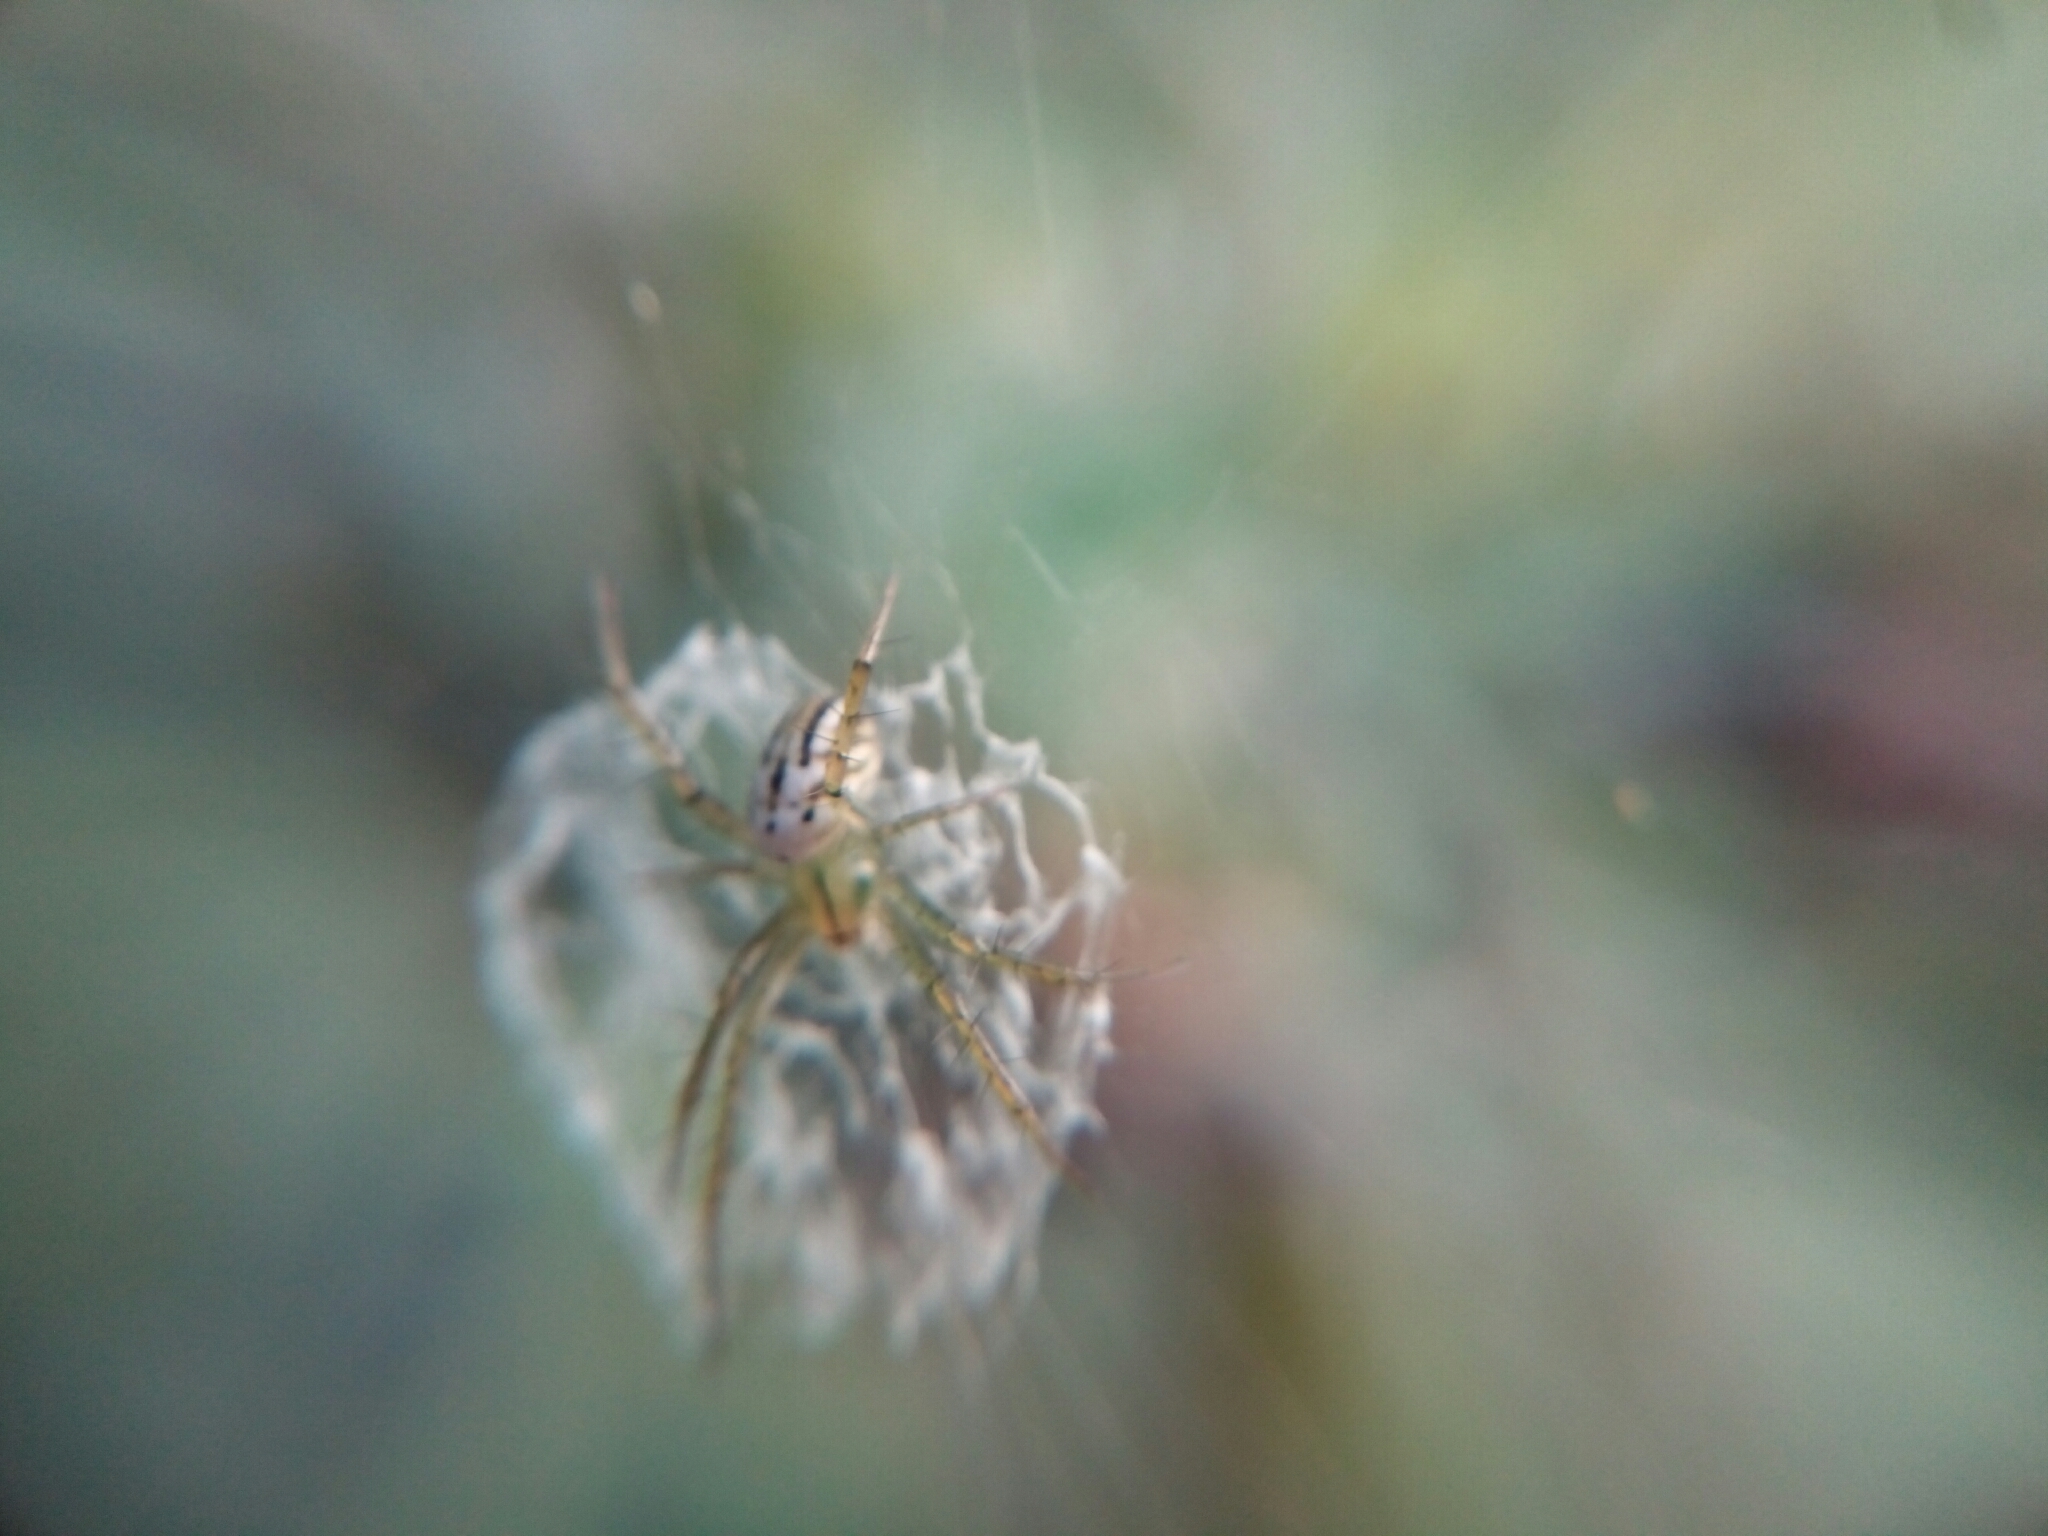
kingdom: Animalia
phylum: Arthropoda
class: Arachnida
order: Araneae
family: Araneidae
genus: Mangora
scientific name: Mangora gibberosa
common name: Lined orbweaver
